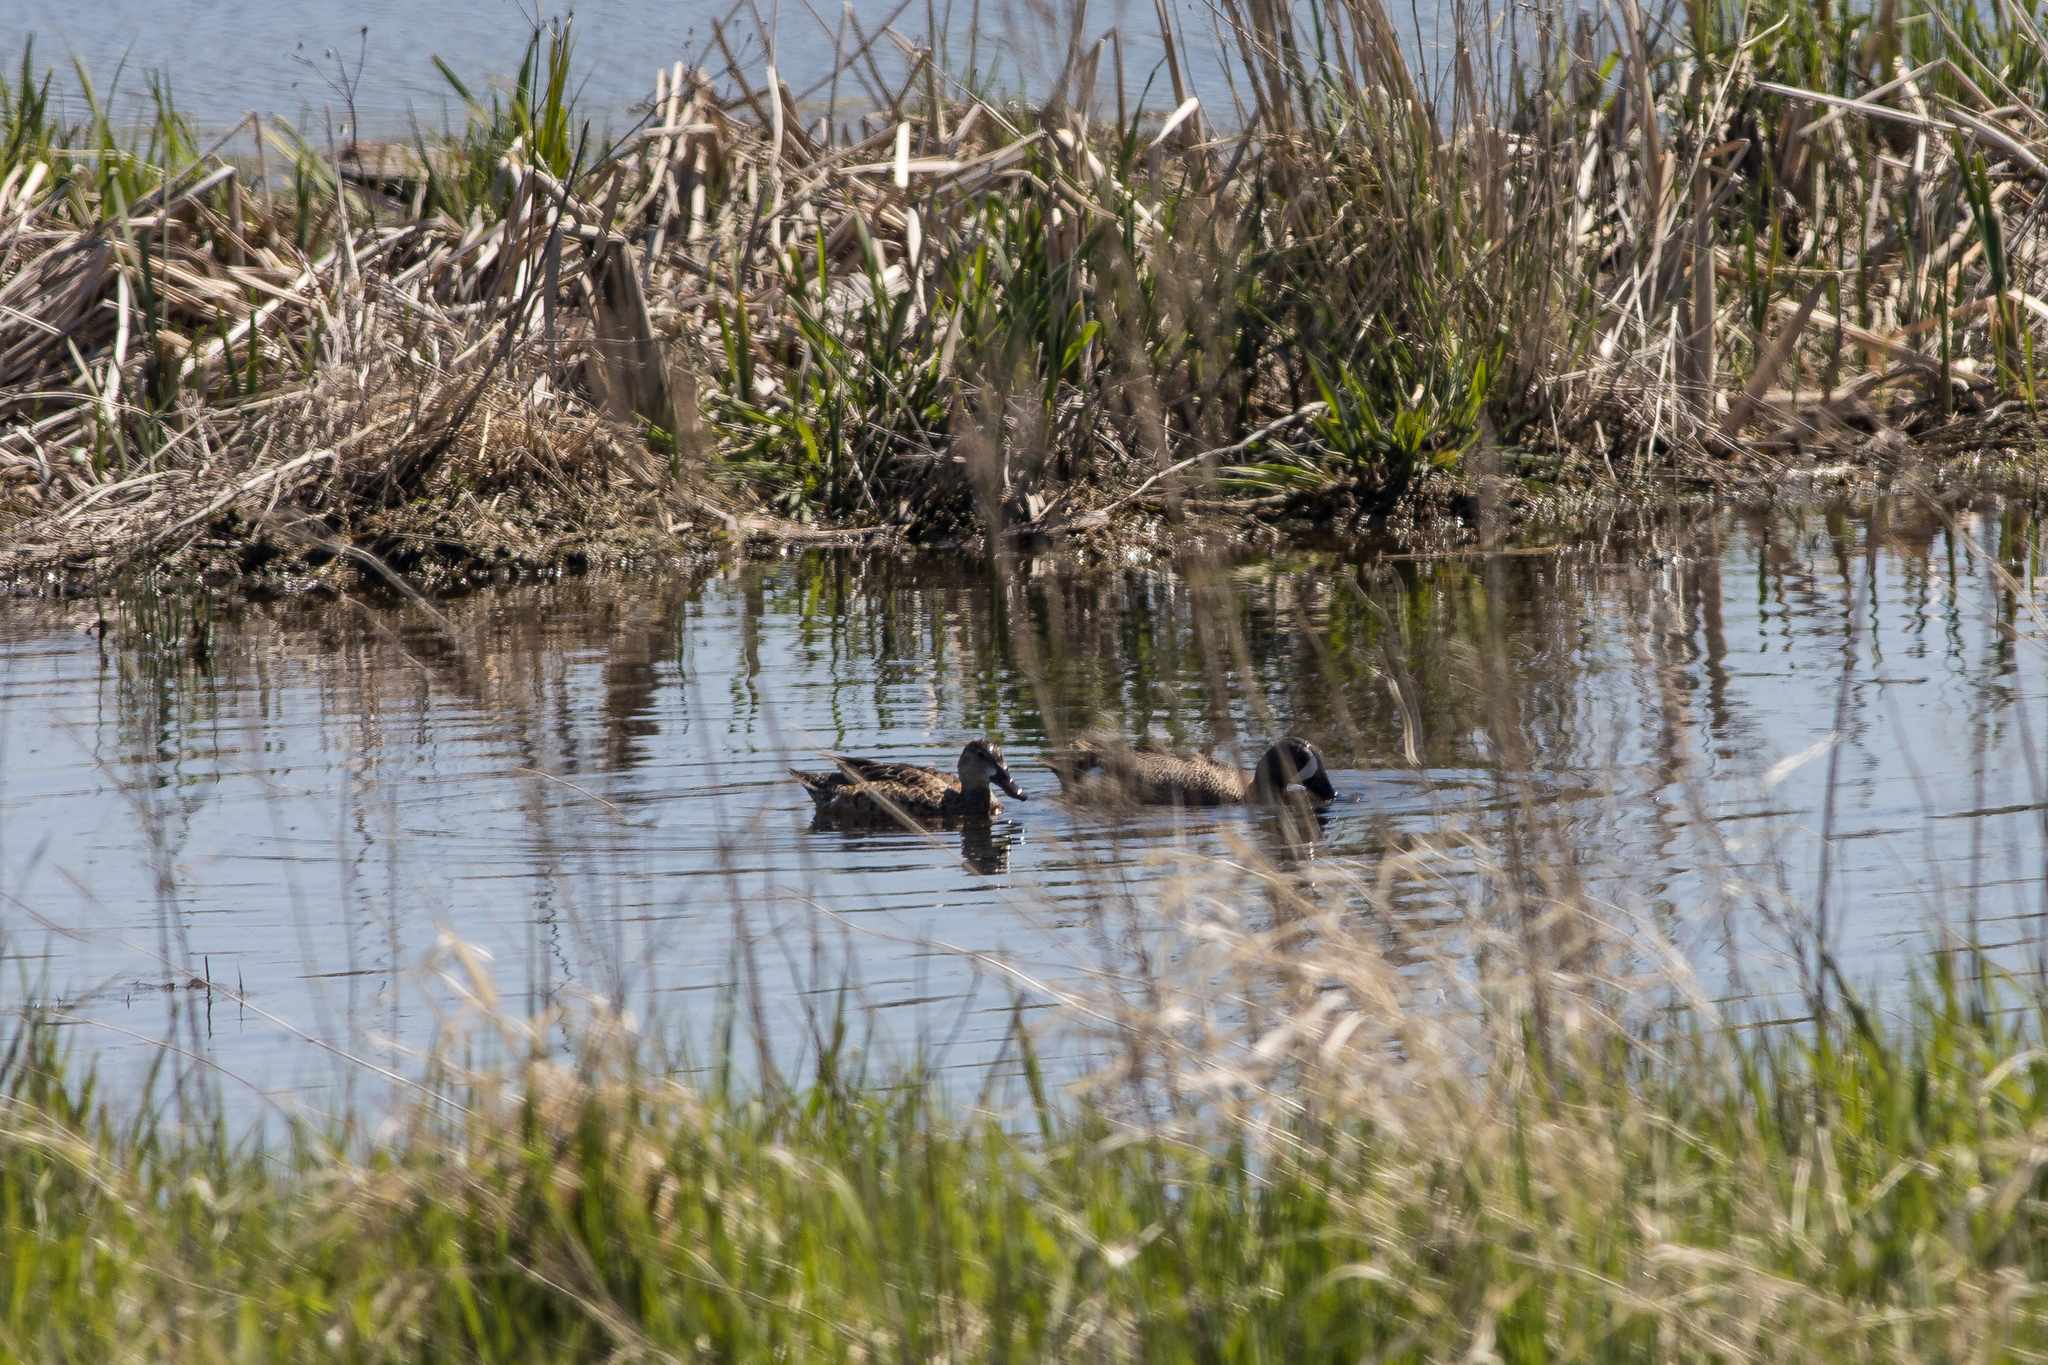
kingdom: Animalia
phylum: Chordata
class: Aves
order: Anseriformes
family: Anatidae
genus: Spatula
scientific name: Spatula discors
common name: Blue-winged teal
